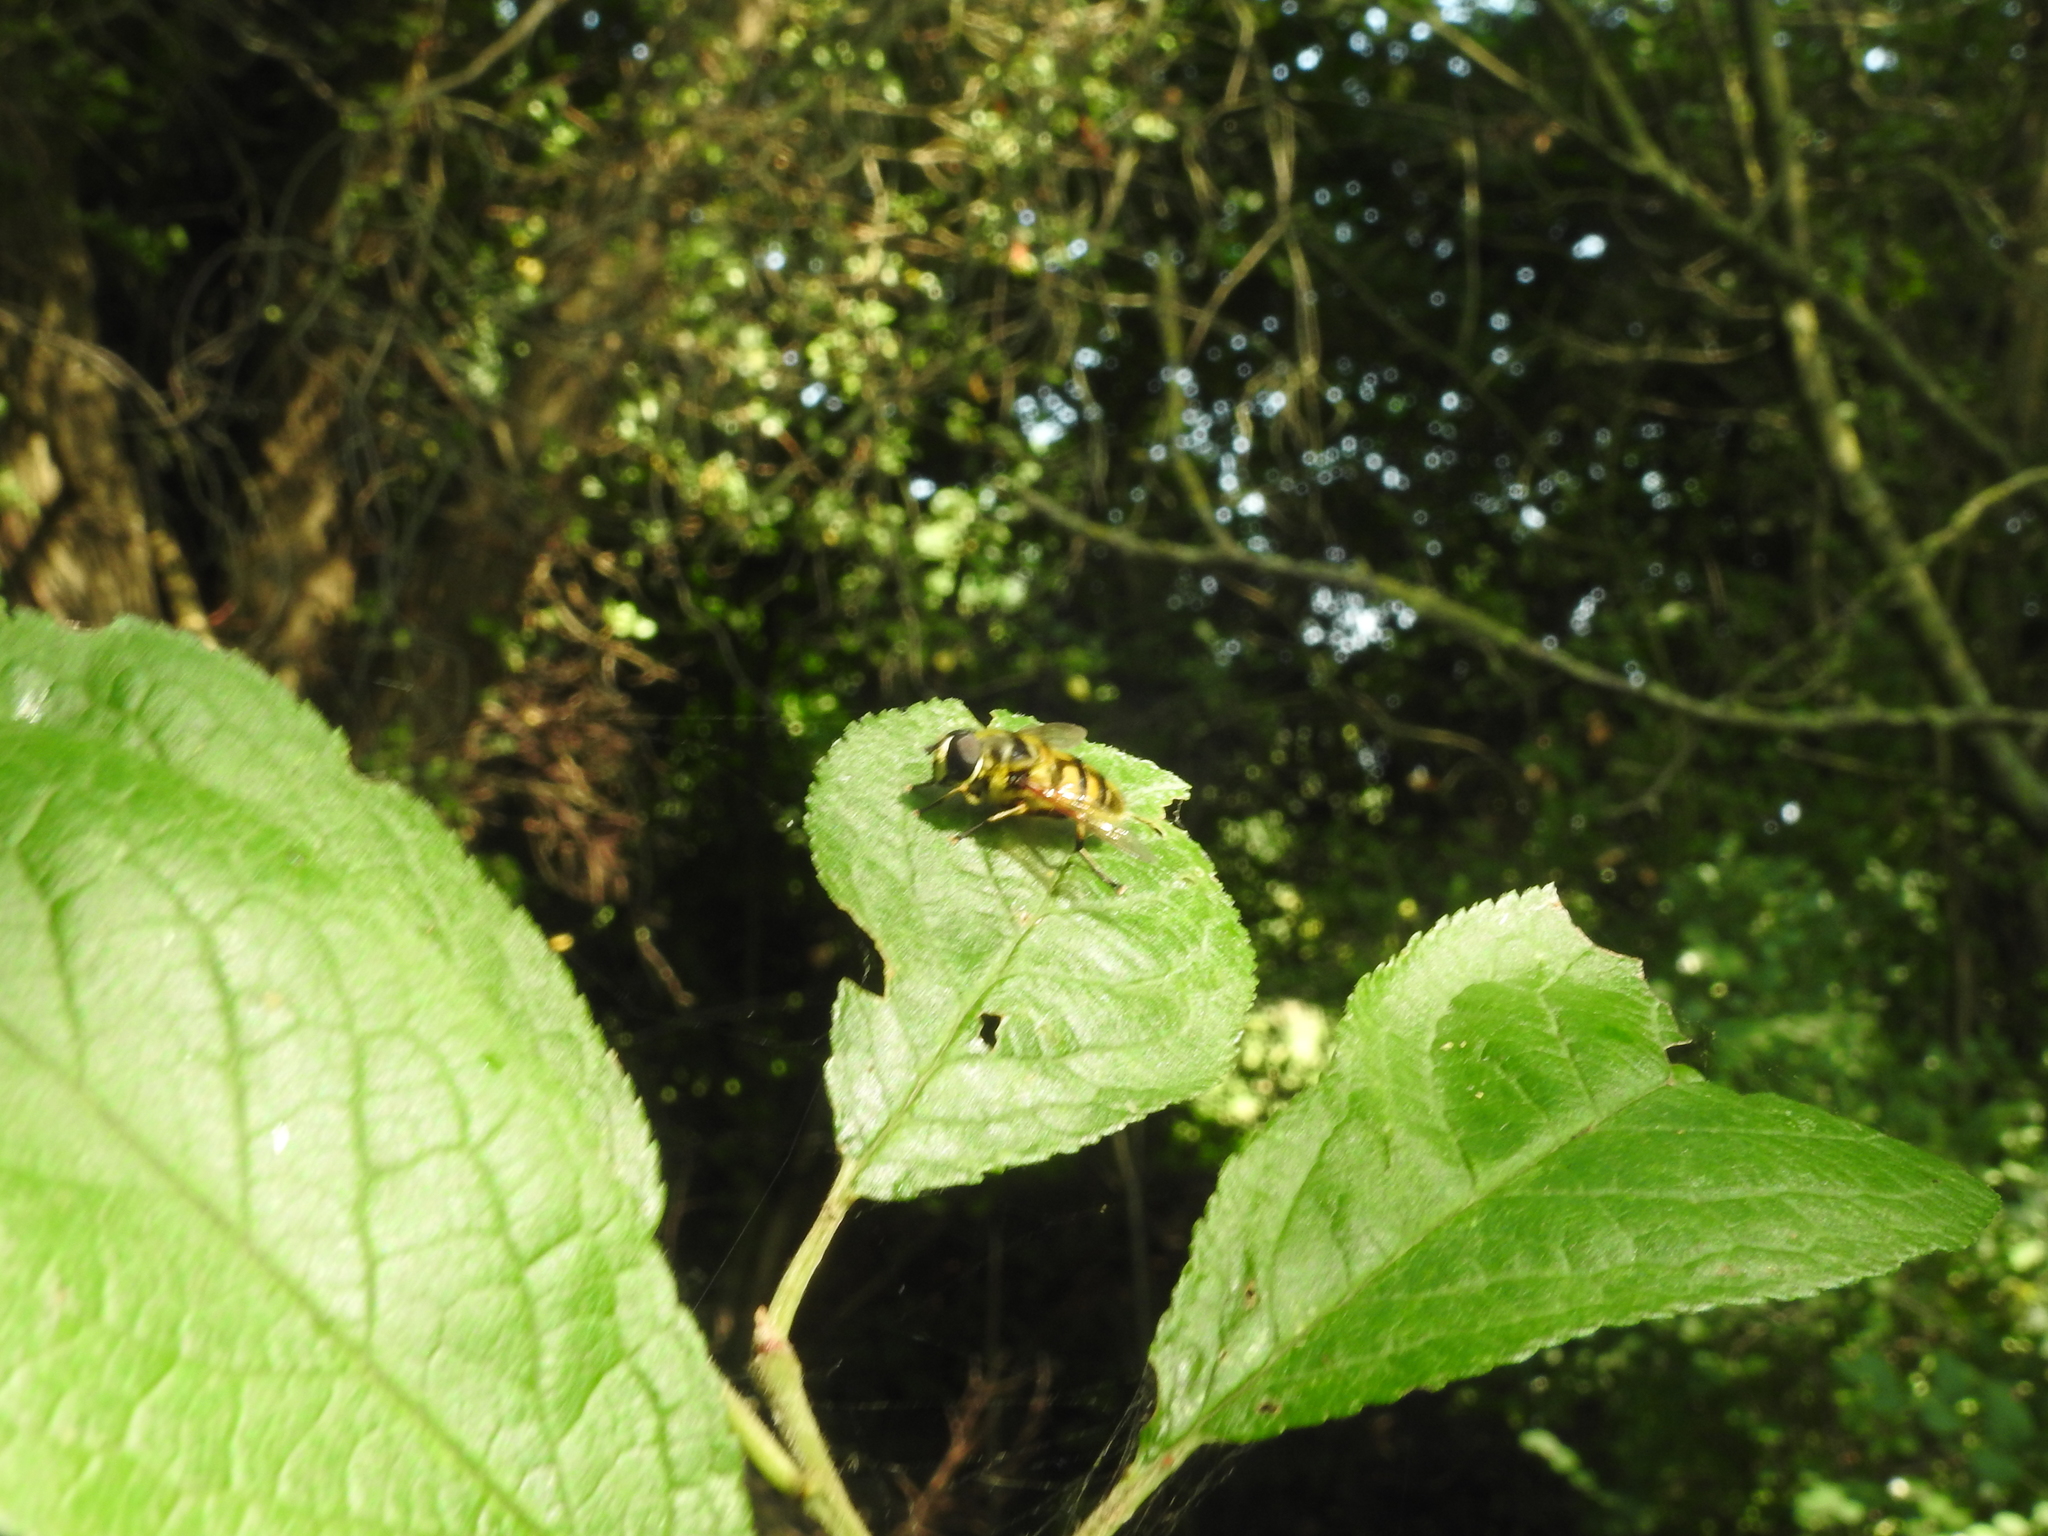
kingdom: Animalia
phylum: Arthropoda
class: Insecta
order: Diptera
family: Syrphidae
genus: Myathropa
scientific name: Myathropa florea
